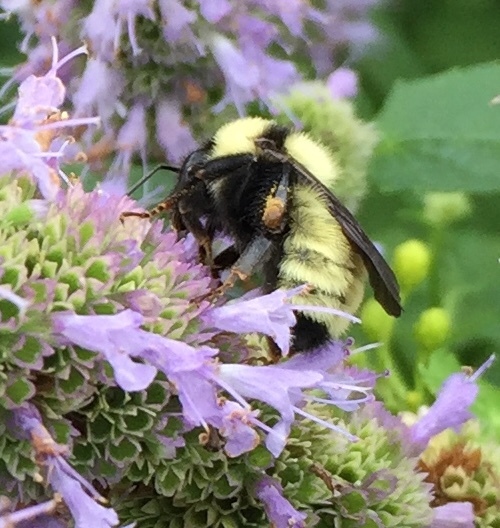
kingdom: Animalia
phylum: Arthropoda
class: Insecta
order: Hymenoptera
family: Apidae
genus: Bombus
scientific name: Bombus fervidus
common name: Yellow bumble bee
